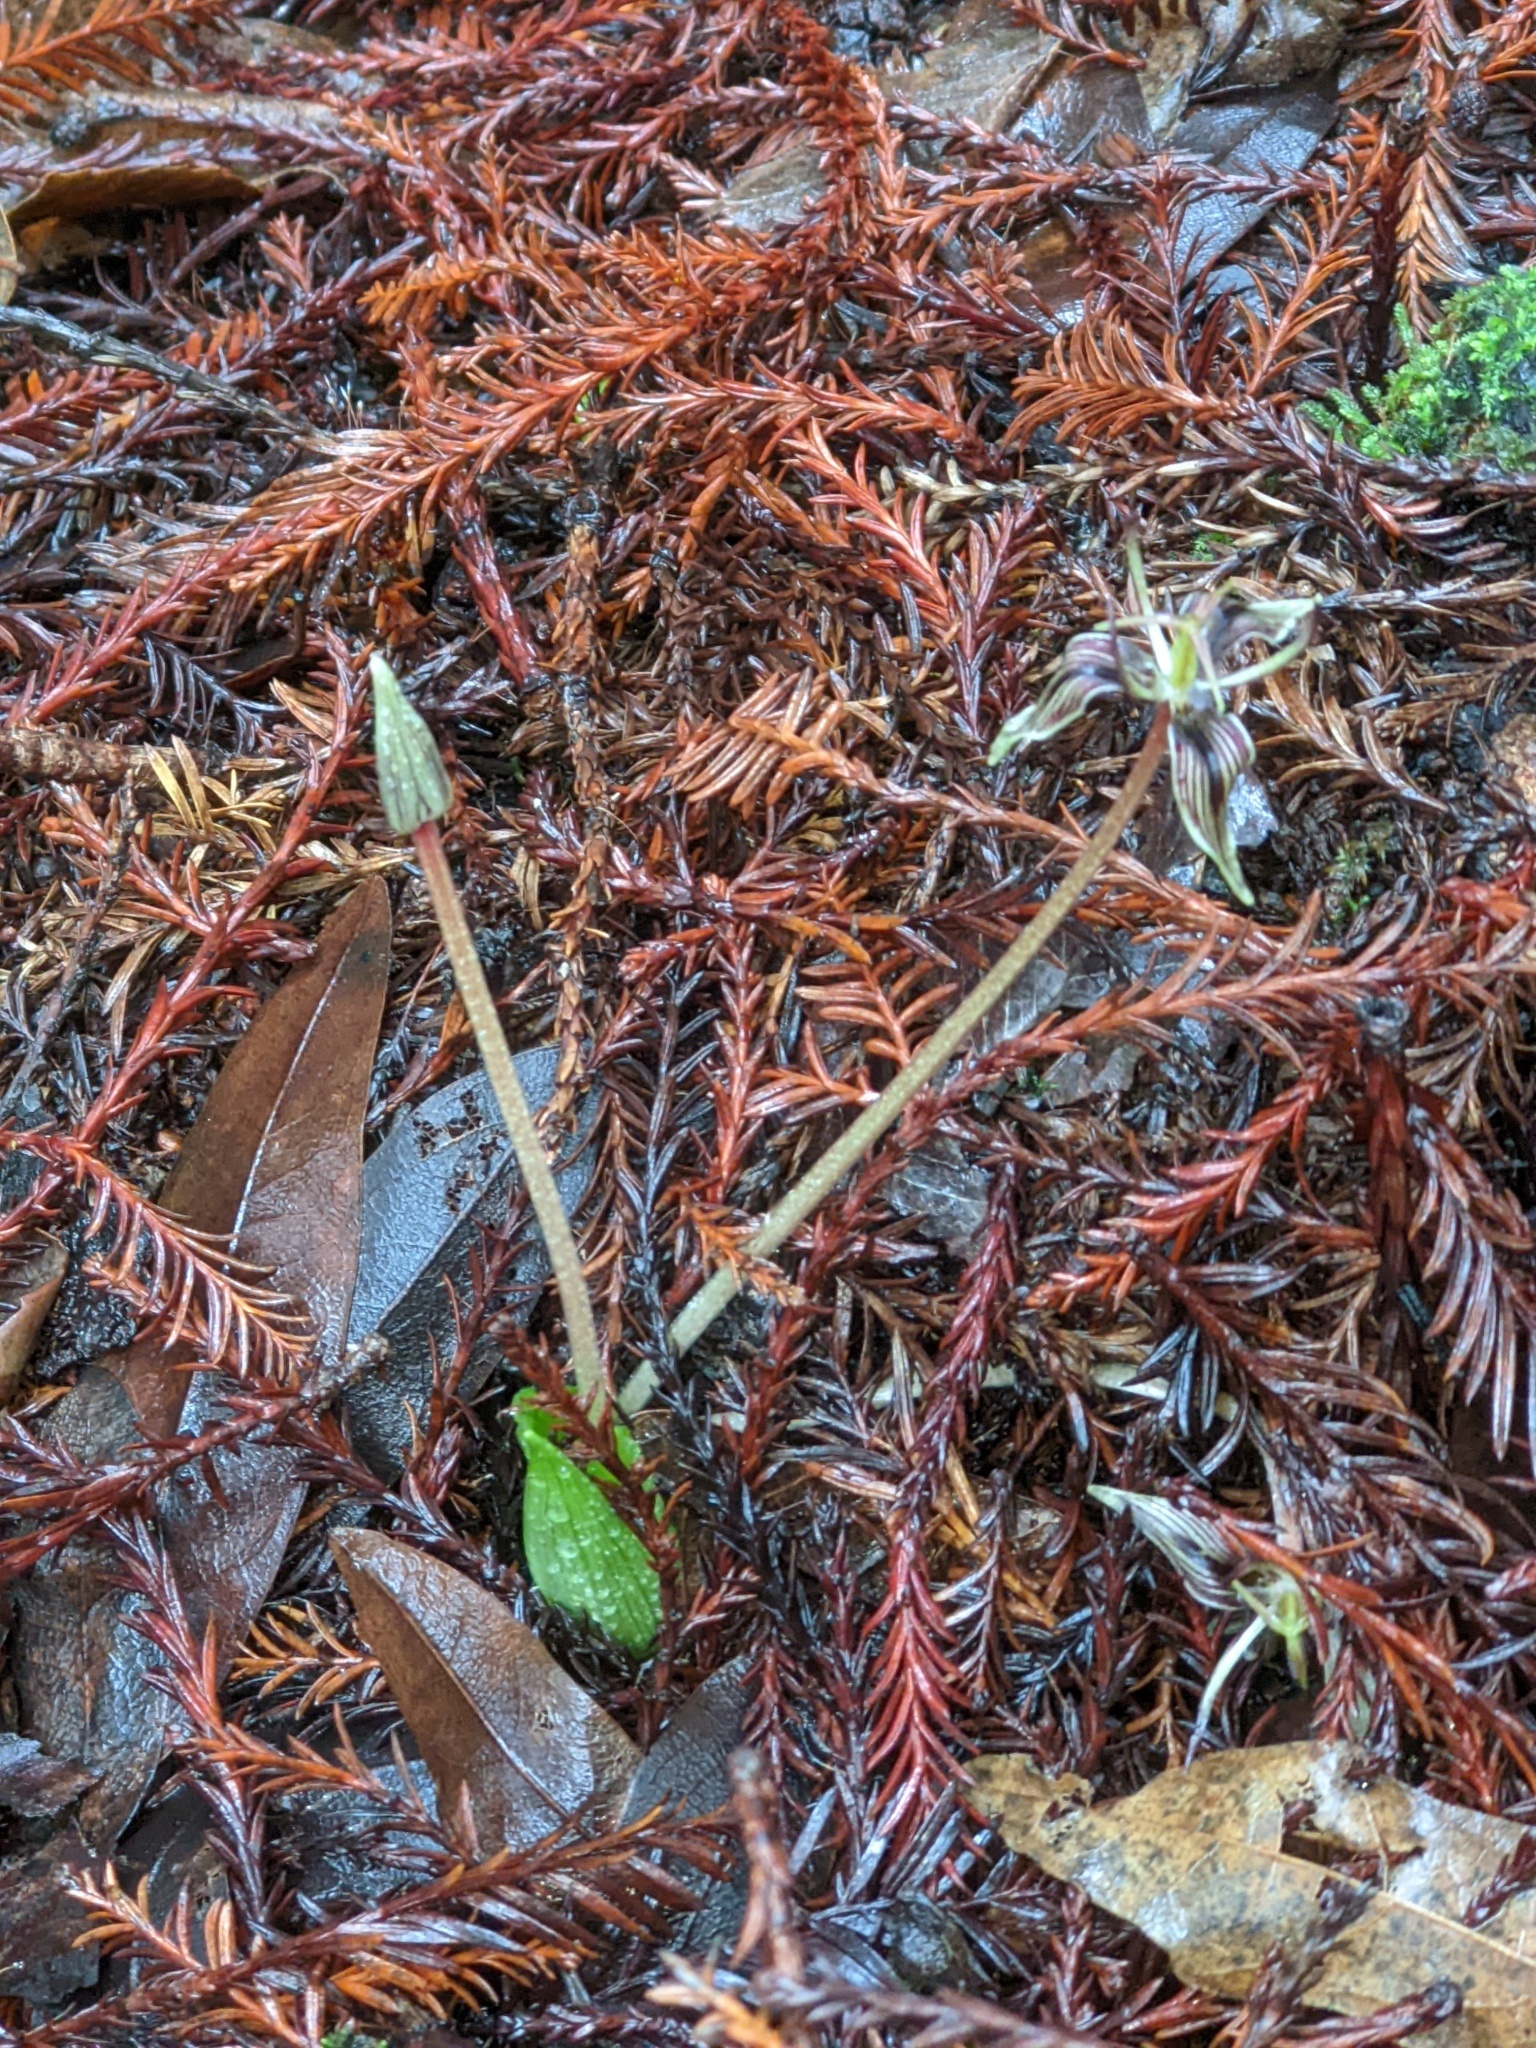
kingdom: Plantae
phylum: Tracheophyta
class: Liliopsida
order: Liliales
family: Liliaceae
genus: Scoliopus
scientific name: Scoliopus bigelovii
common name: Foetid adder's-tongue
